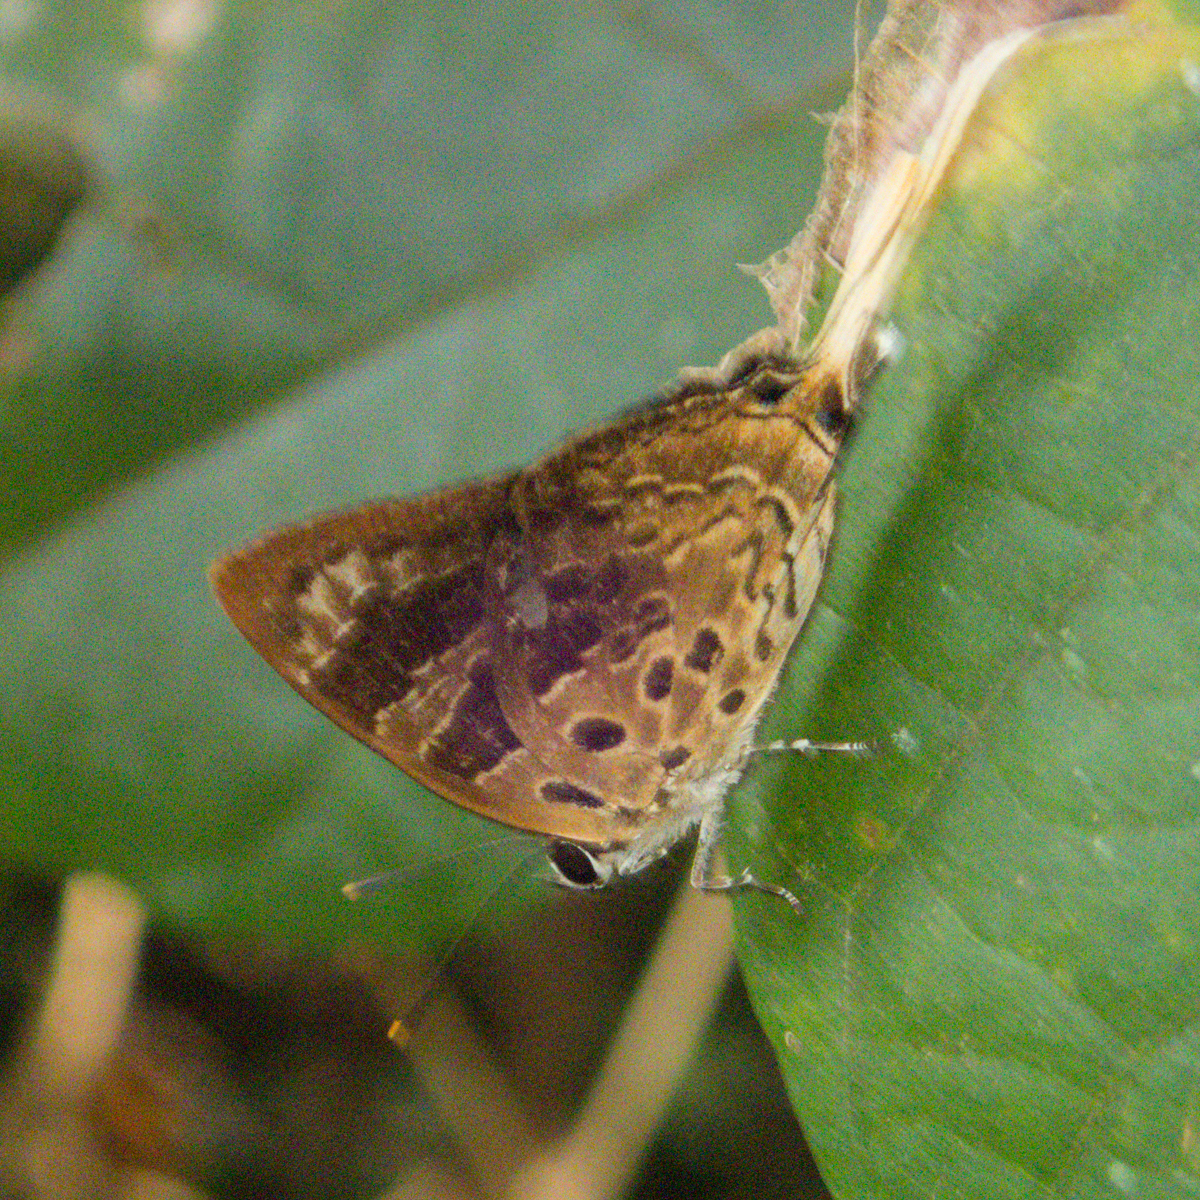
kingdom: Animalia
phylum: Arthropoda
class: Insecta
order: Lepidoptera
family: Lycaenidae
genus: Bindahara
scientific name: Bindahara phocides
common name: Sword-tailed flash
